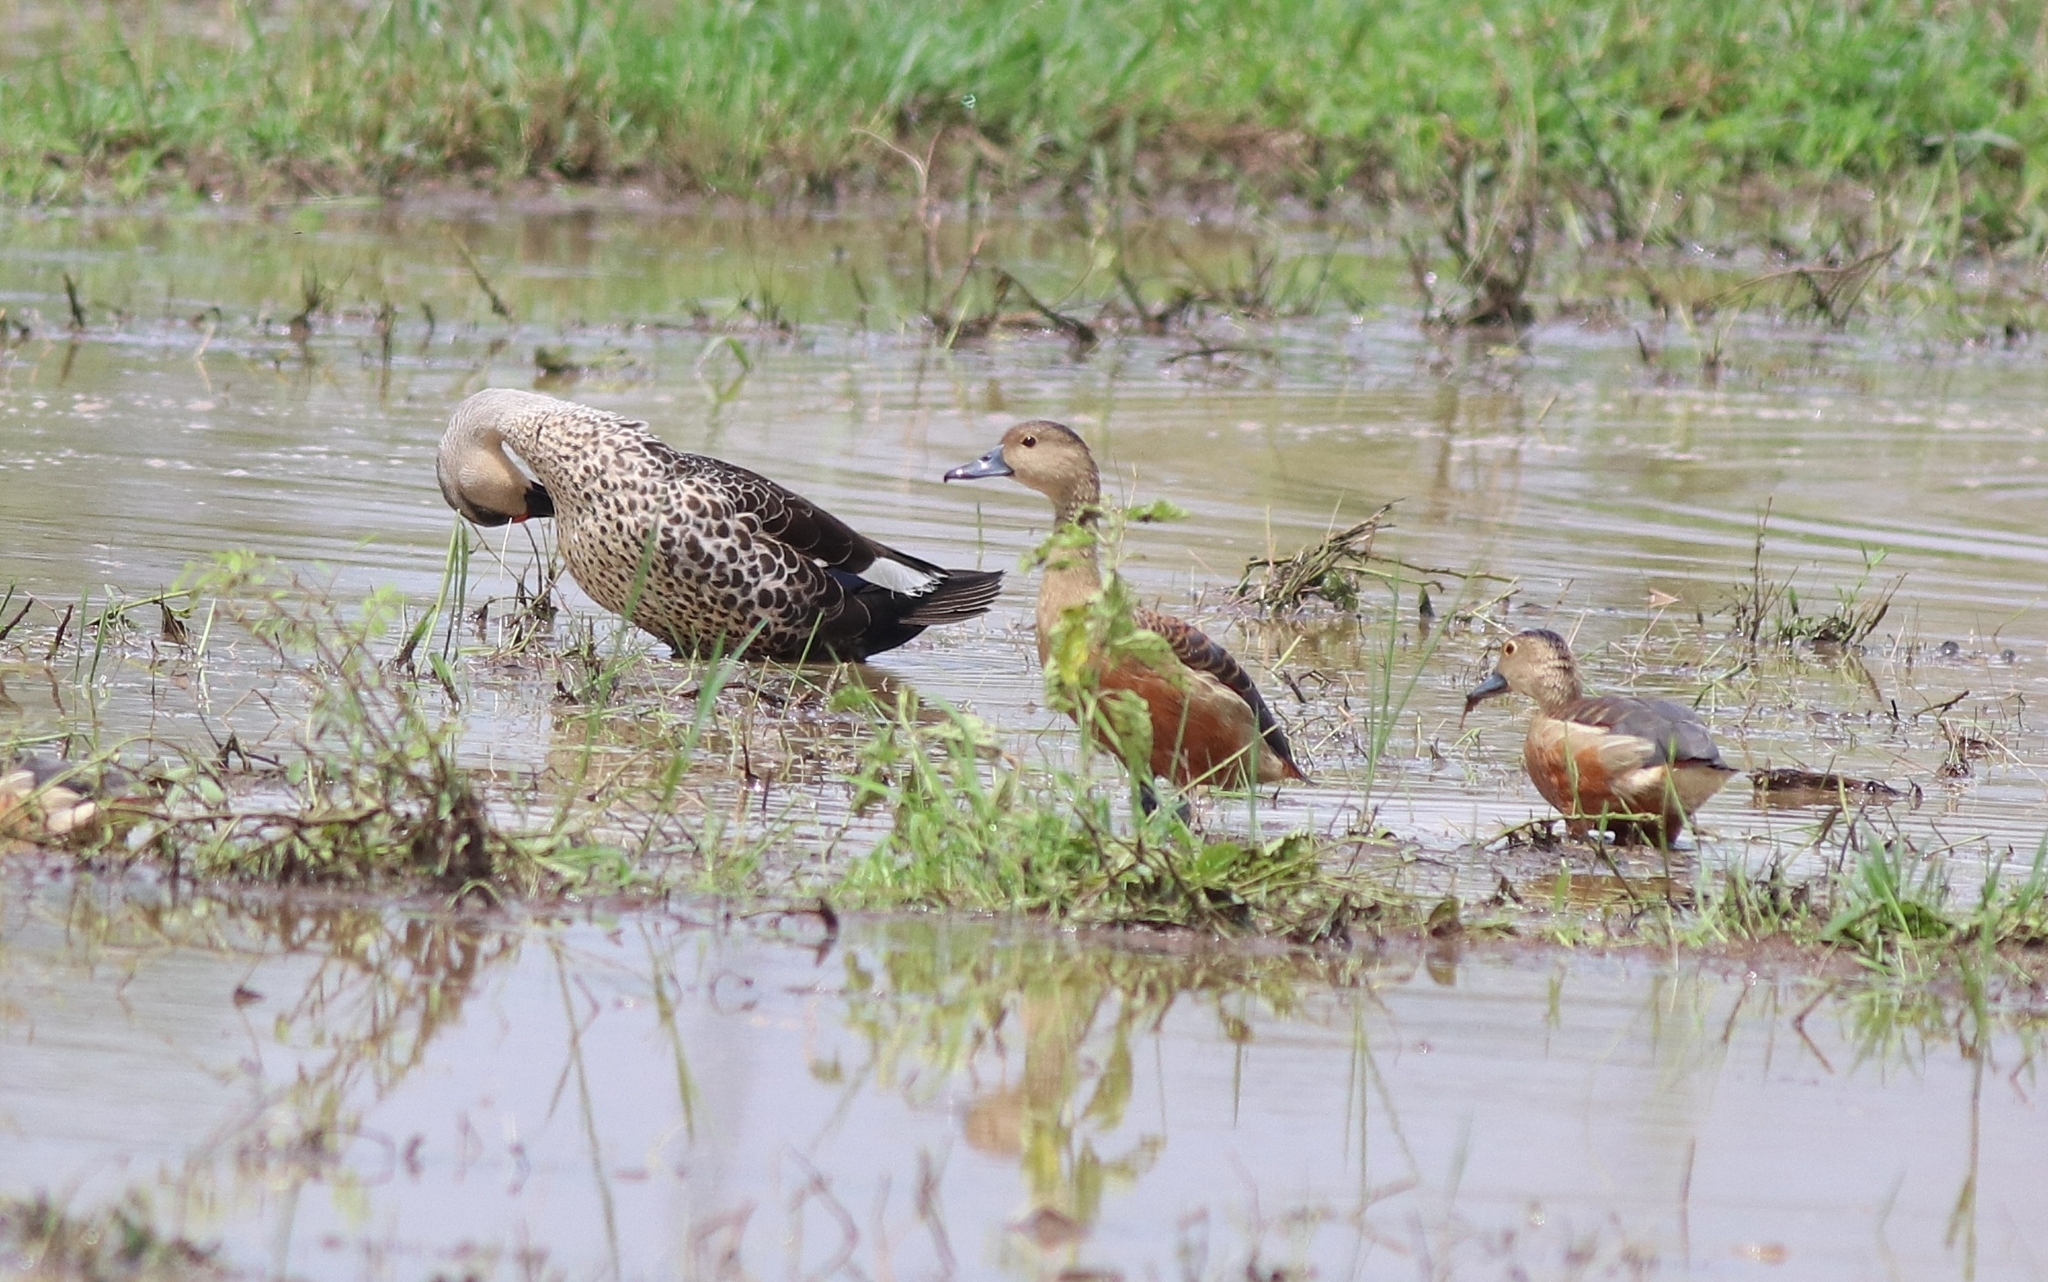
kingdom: Animalia
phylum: Chordata
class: Aves
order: Anseriformes
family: Anatidae
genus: Dendrocygna
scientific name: Dendrocygna javanica
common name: Lesser whistling-duck
